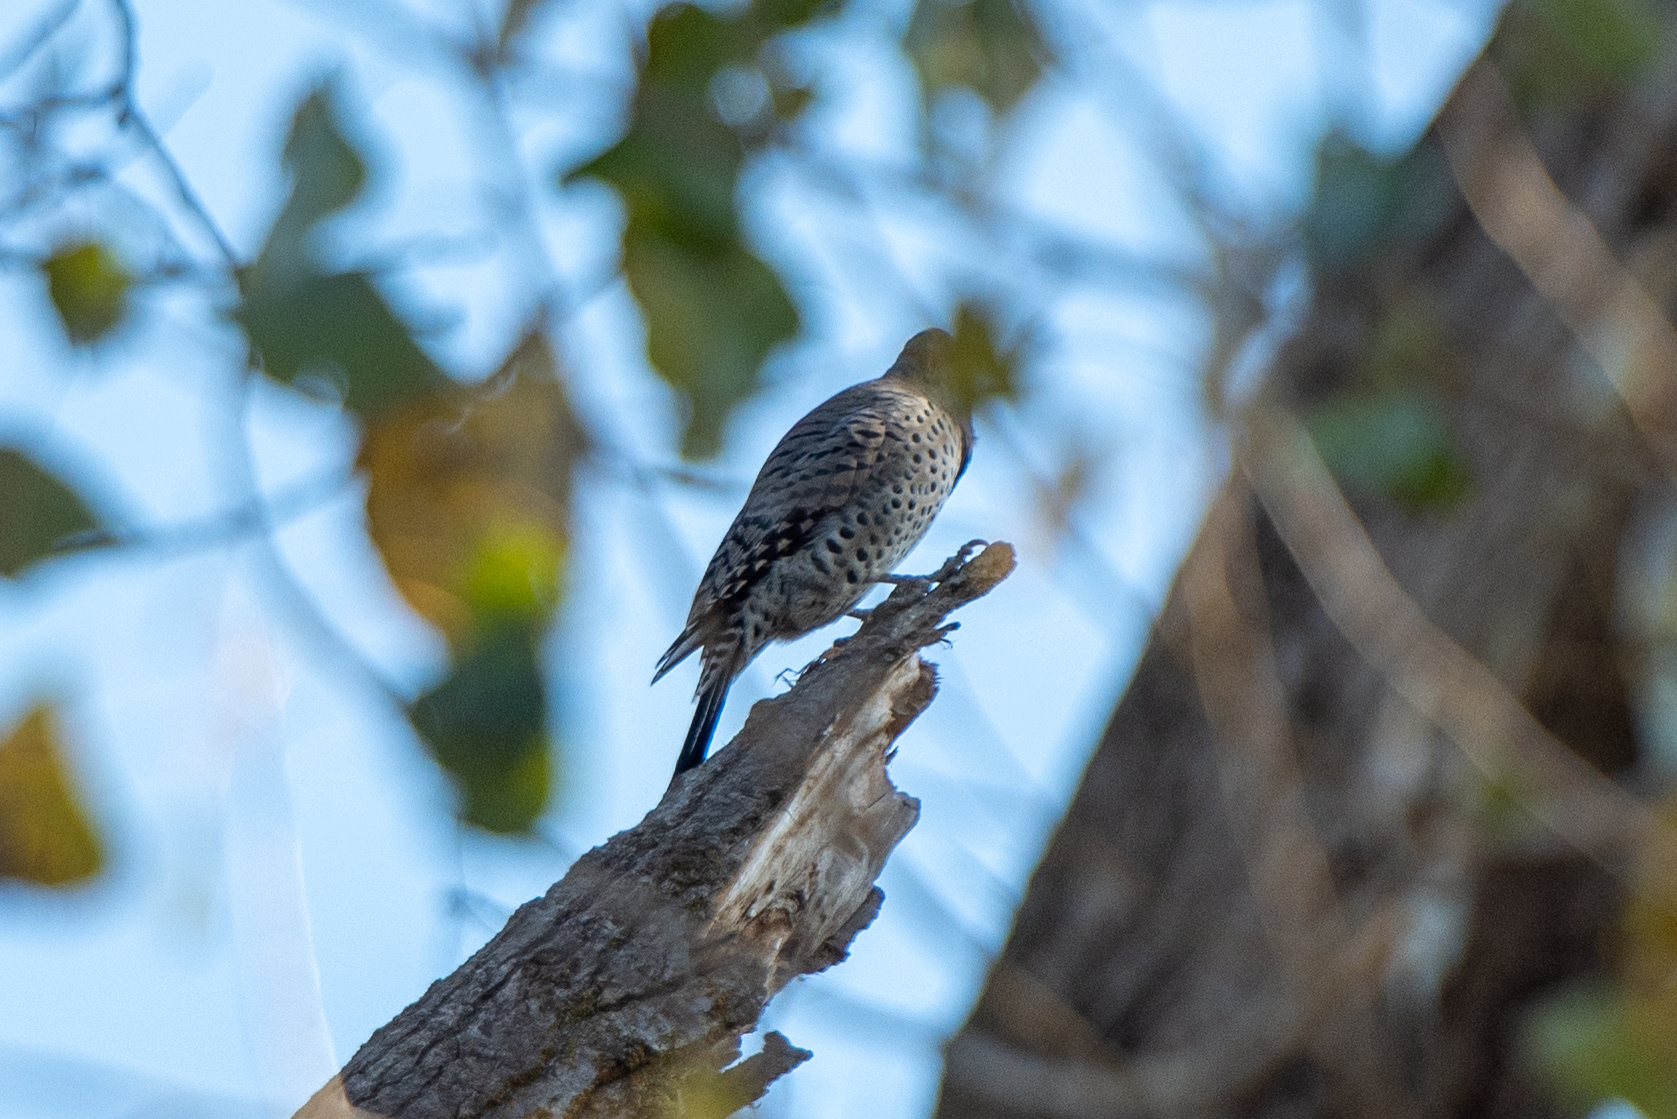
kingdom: Animalia
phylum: Chordata
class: Aves
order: Piciformes
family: Picidae
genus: Colaptes
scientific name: Colaptes auratus
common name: Northern flicker
